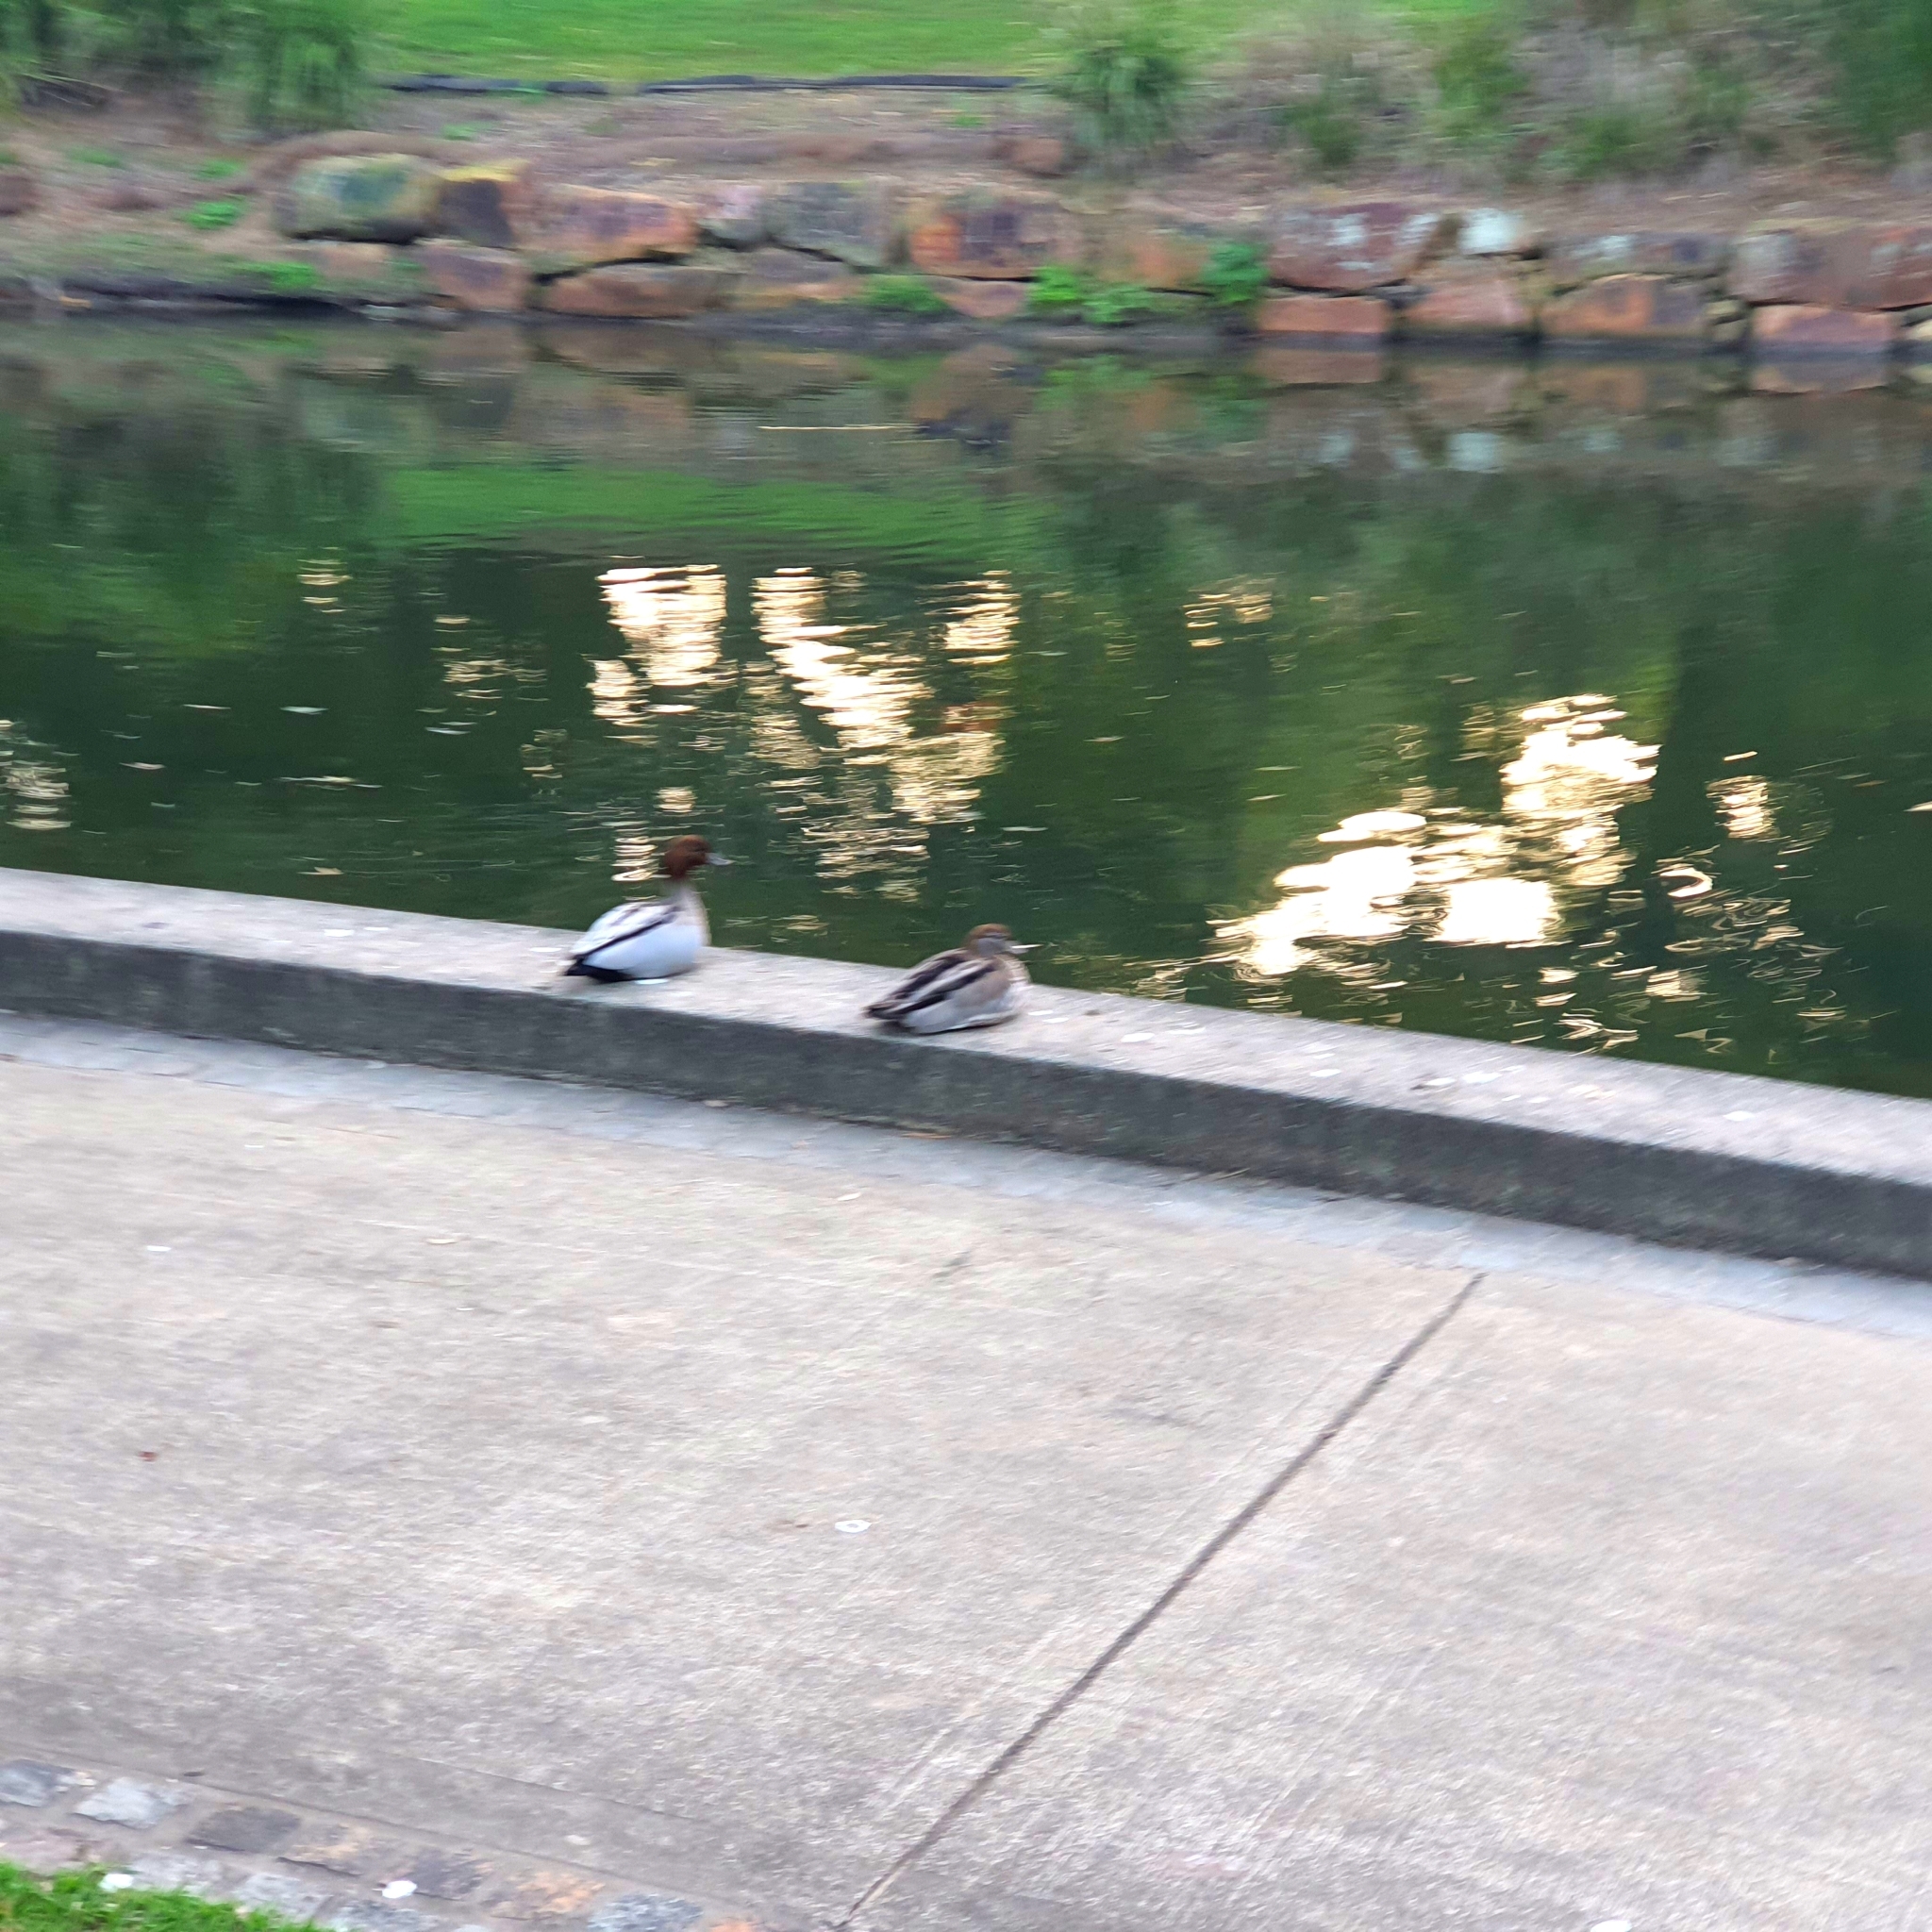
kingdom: Animalia
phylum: Chordata
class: Aves
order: Anseriformes
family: Anatidae
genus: Chenonetta
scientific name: Chenonetta jubata
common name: Maned duck
